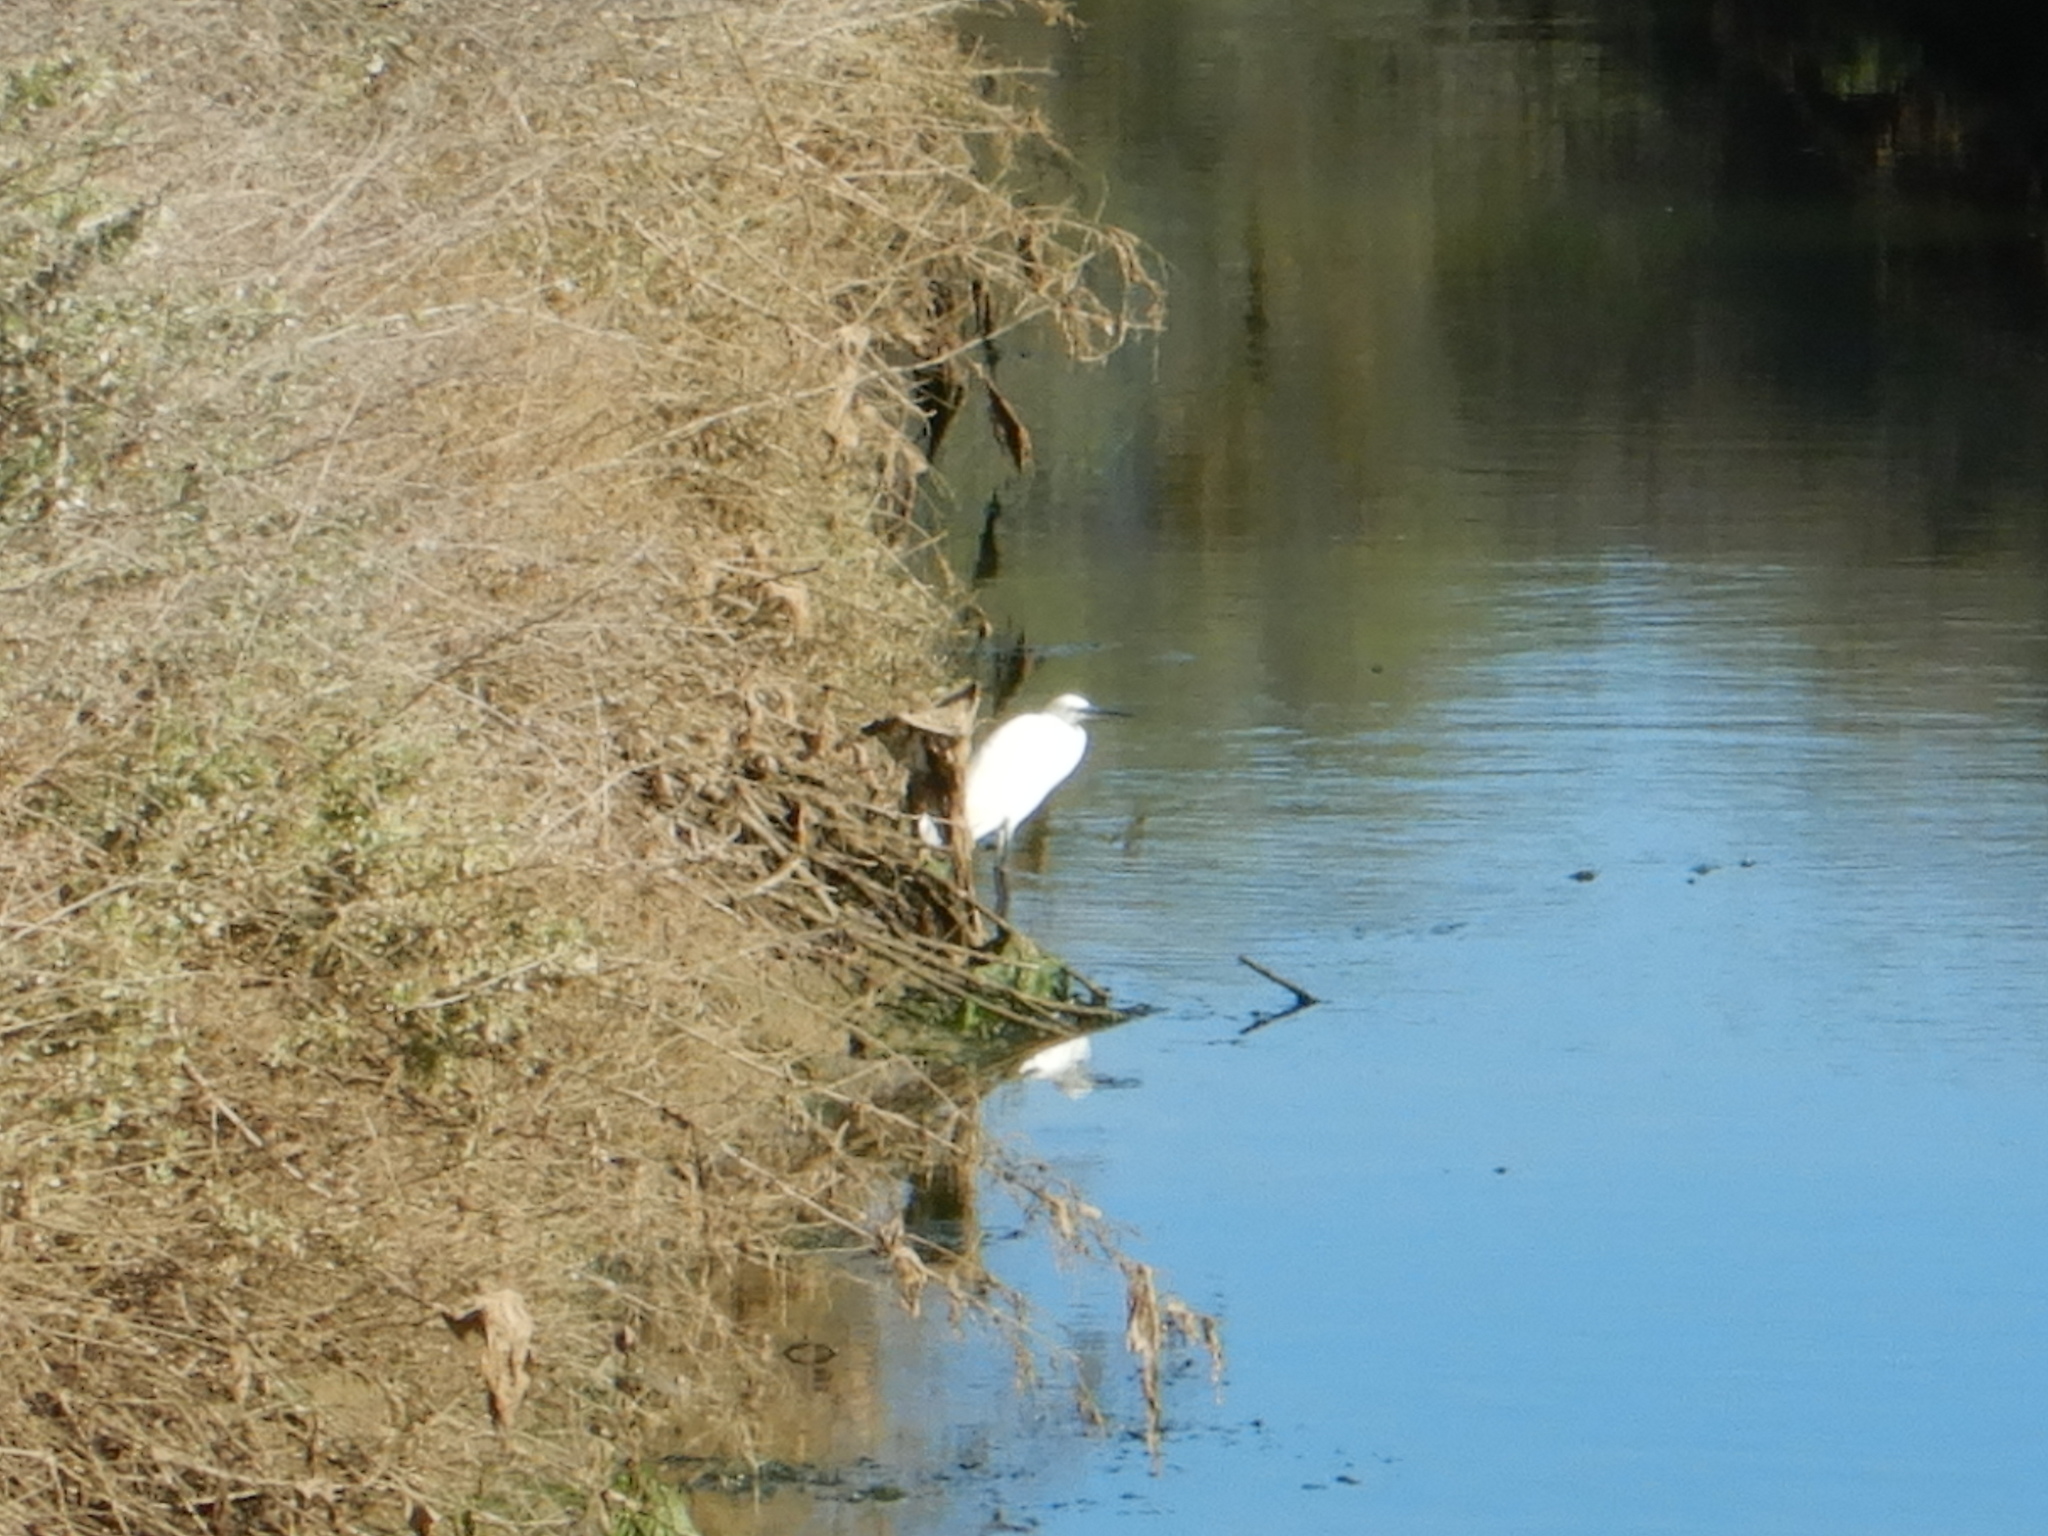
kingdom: Animalia
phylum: Chordata
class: Aves
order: Pelecaniformes
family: Ardeidae
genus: Egretta
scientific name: Egretta garzetta
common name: Little egret
